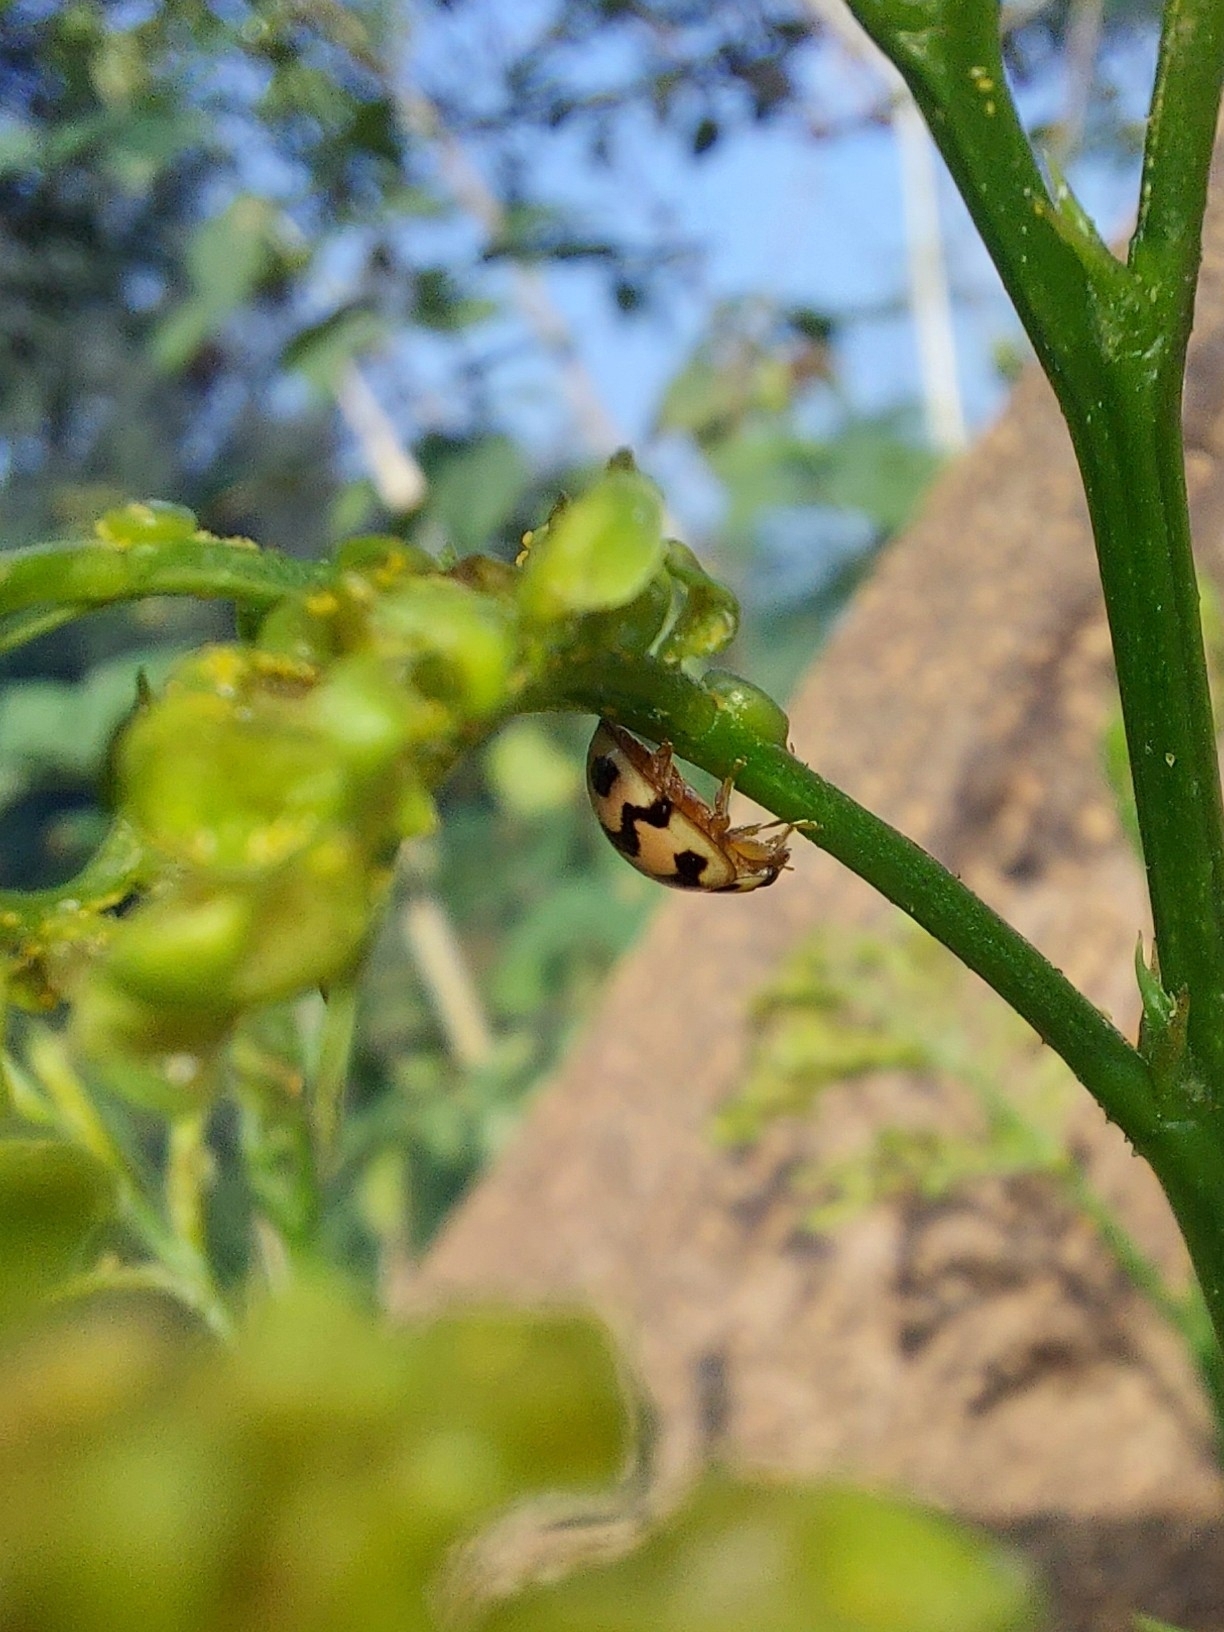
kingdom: Animalia
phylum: Arthropoda
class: Insecta
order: Coleoptera
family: Coccinellidae
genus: Cheilomenes
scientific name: Cheilomenes sexmaculata
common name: Ladybird beetle
